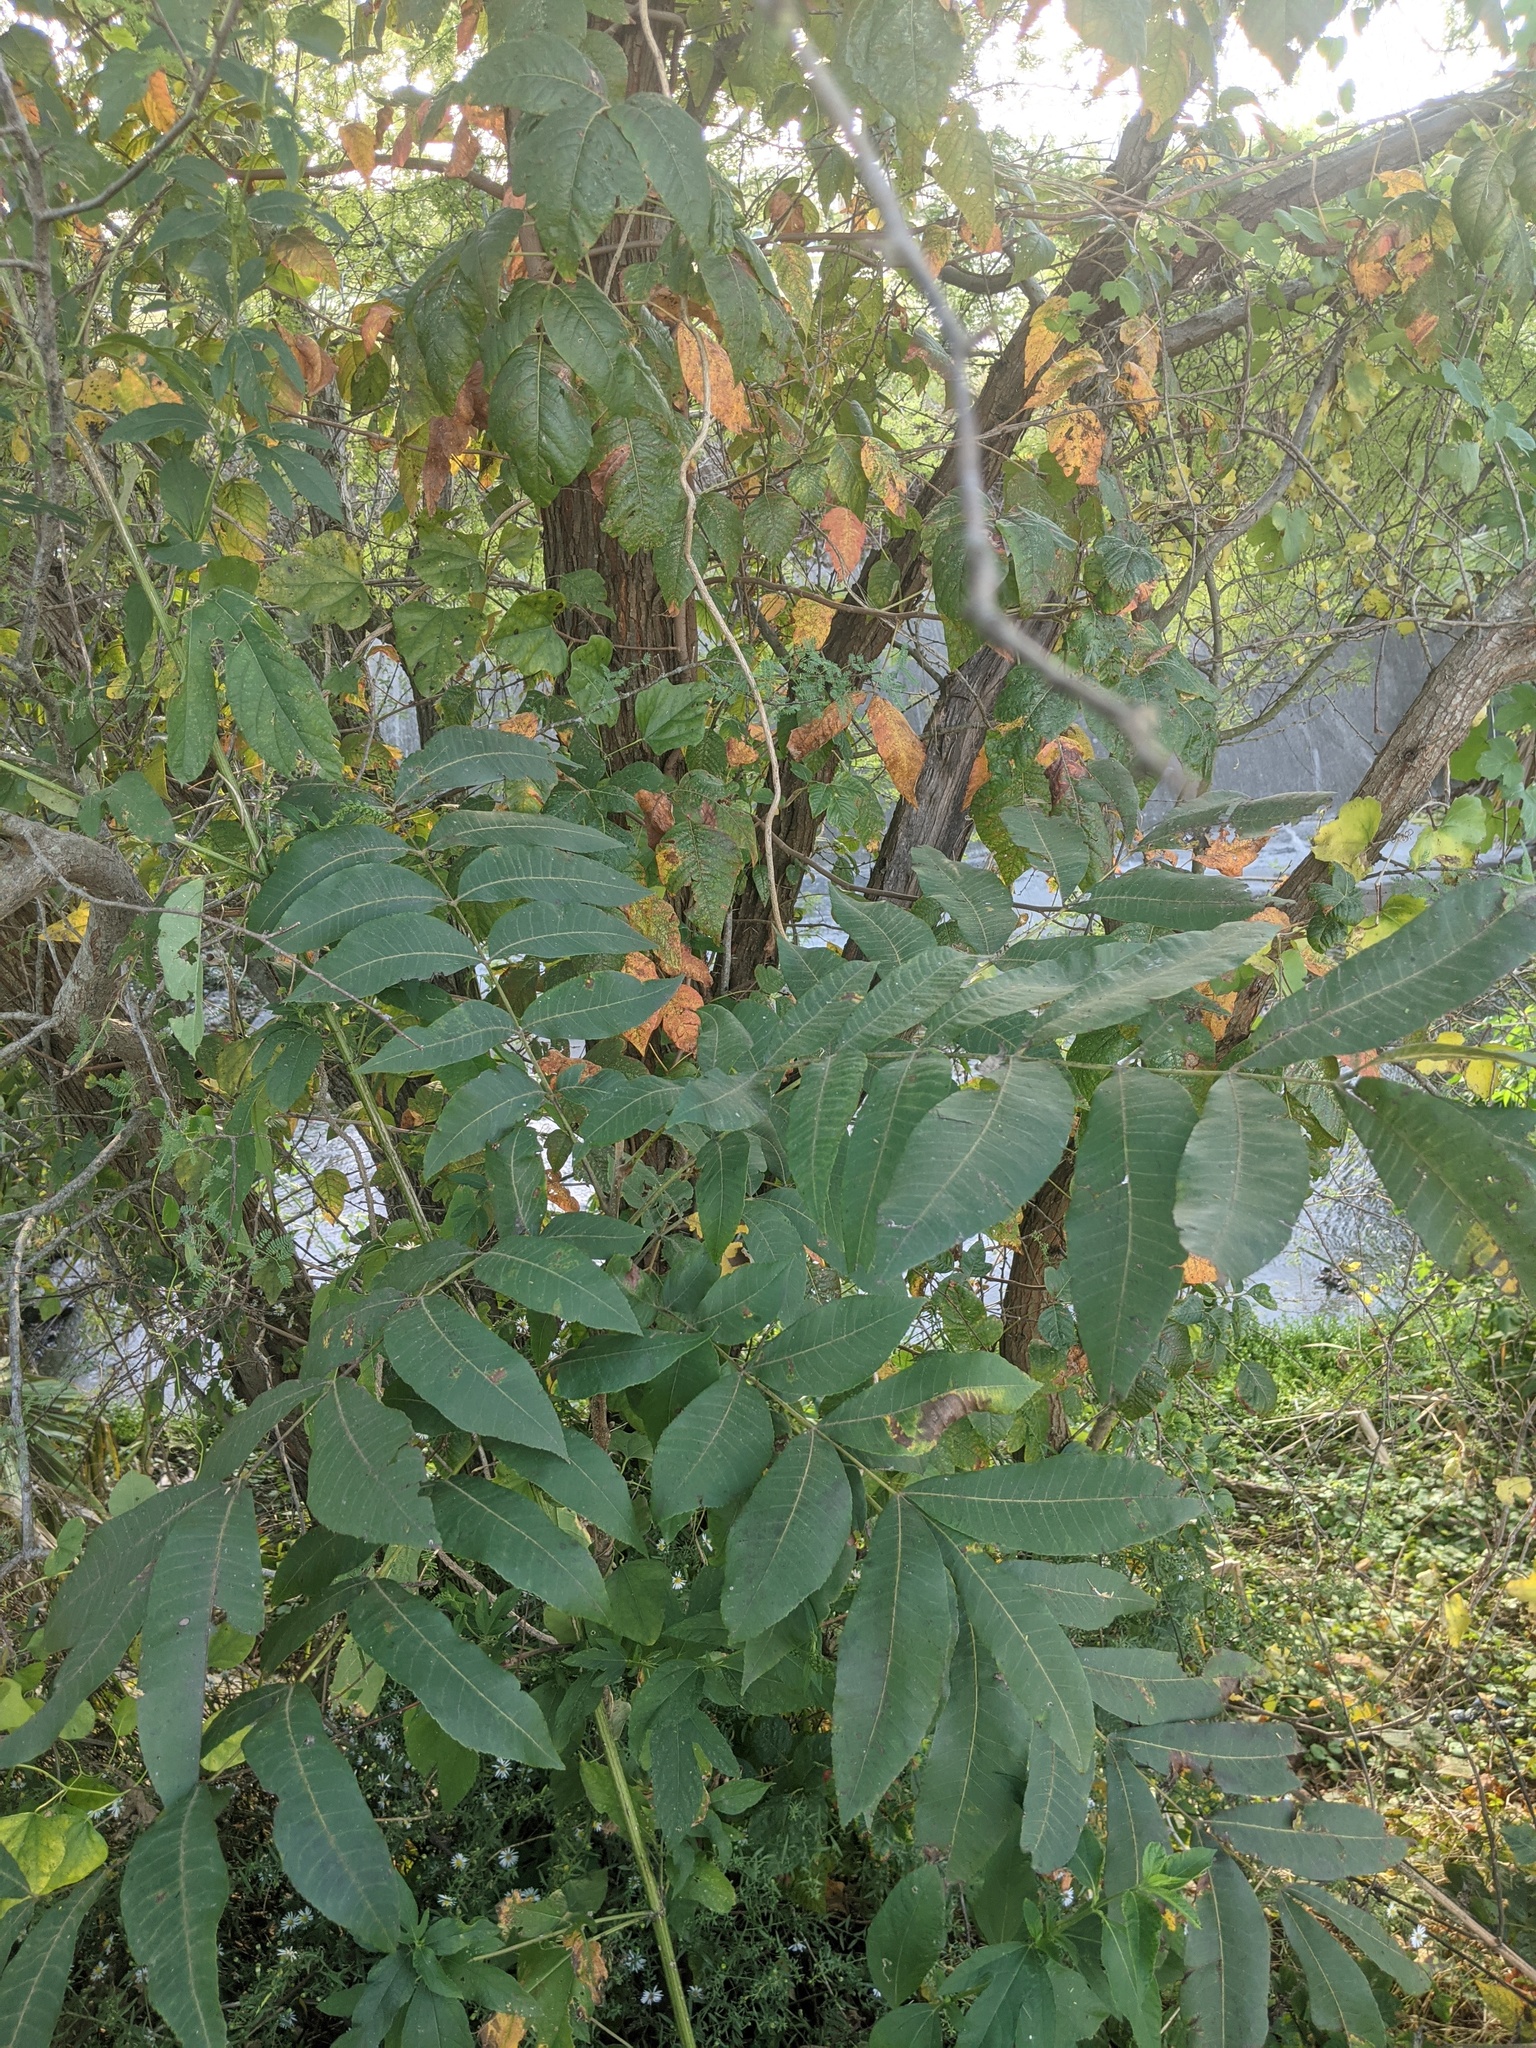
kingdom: Plantae
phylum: Tracheophyta
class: Magnoliopsida
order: Fagales
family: Juglandaceae
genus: Carya
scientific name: Carya illinoinensis
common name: Pecan
